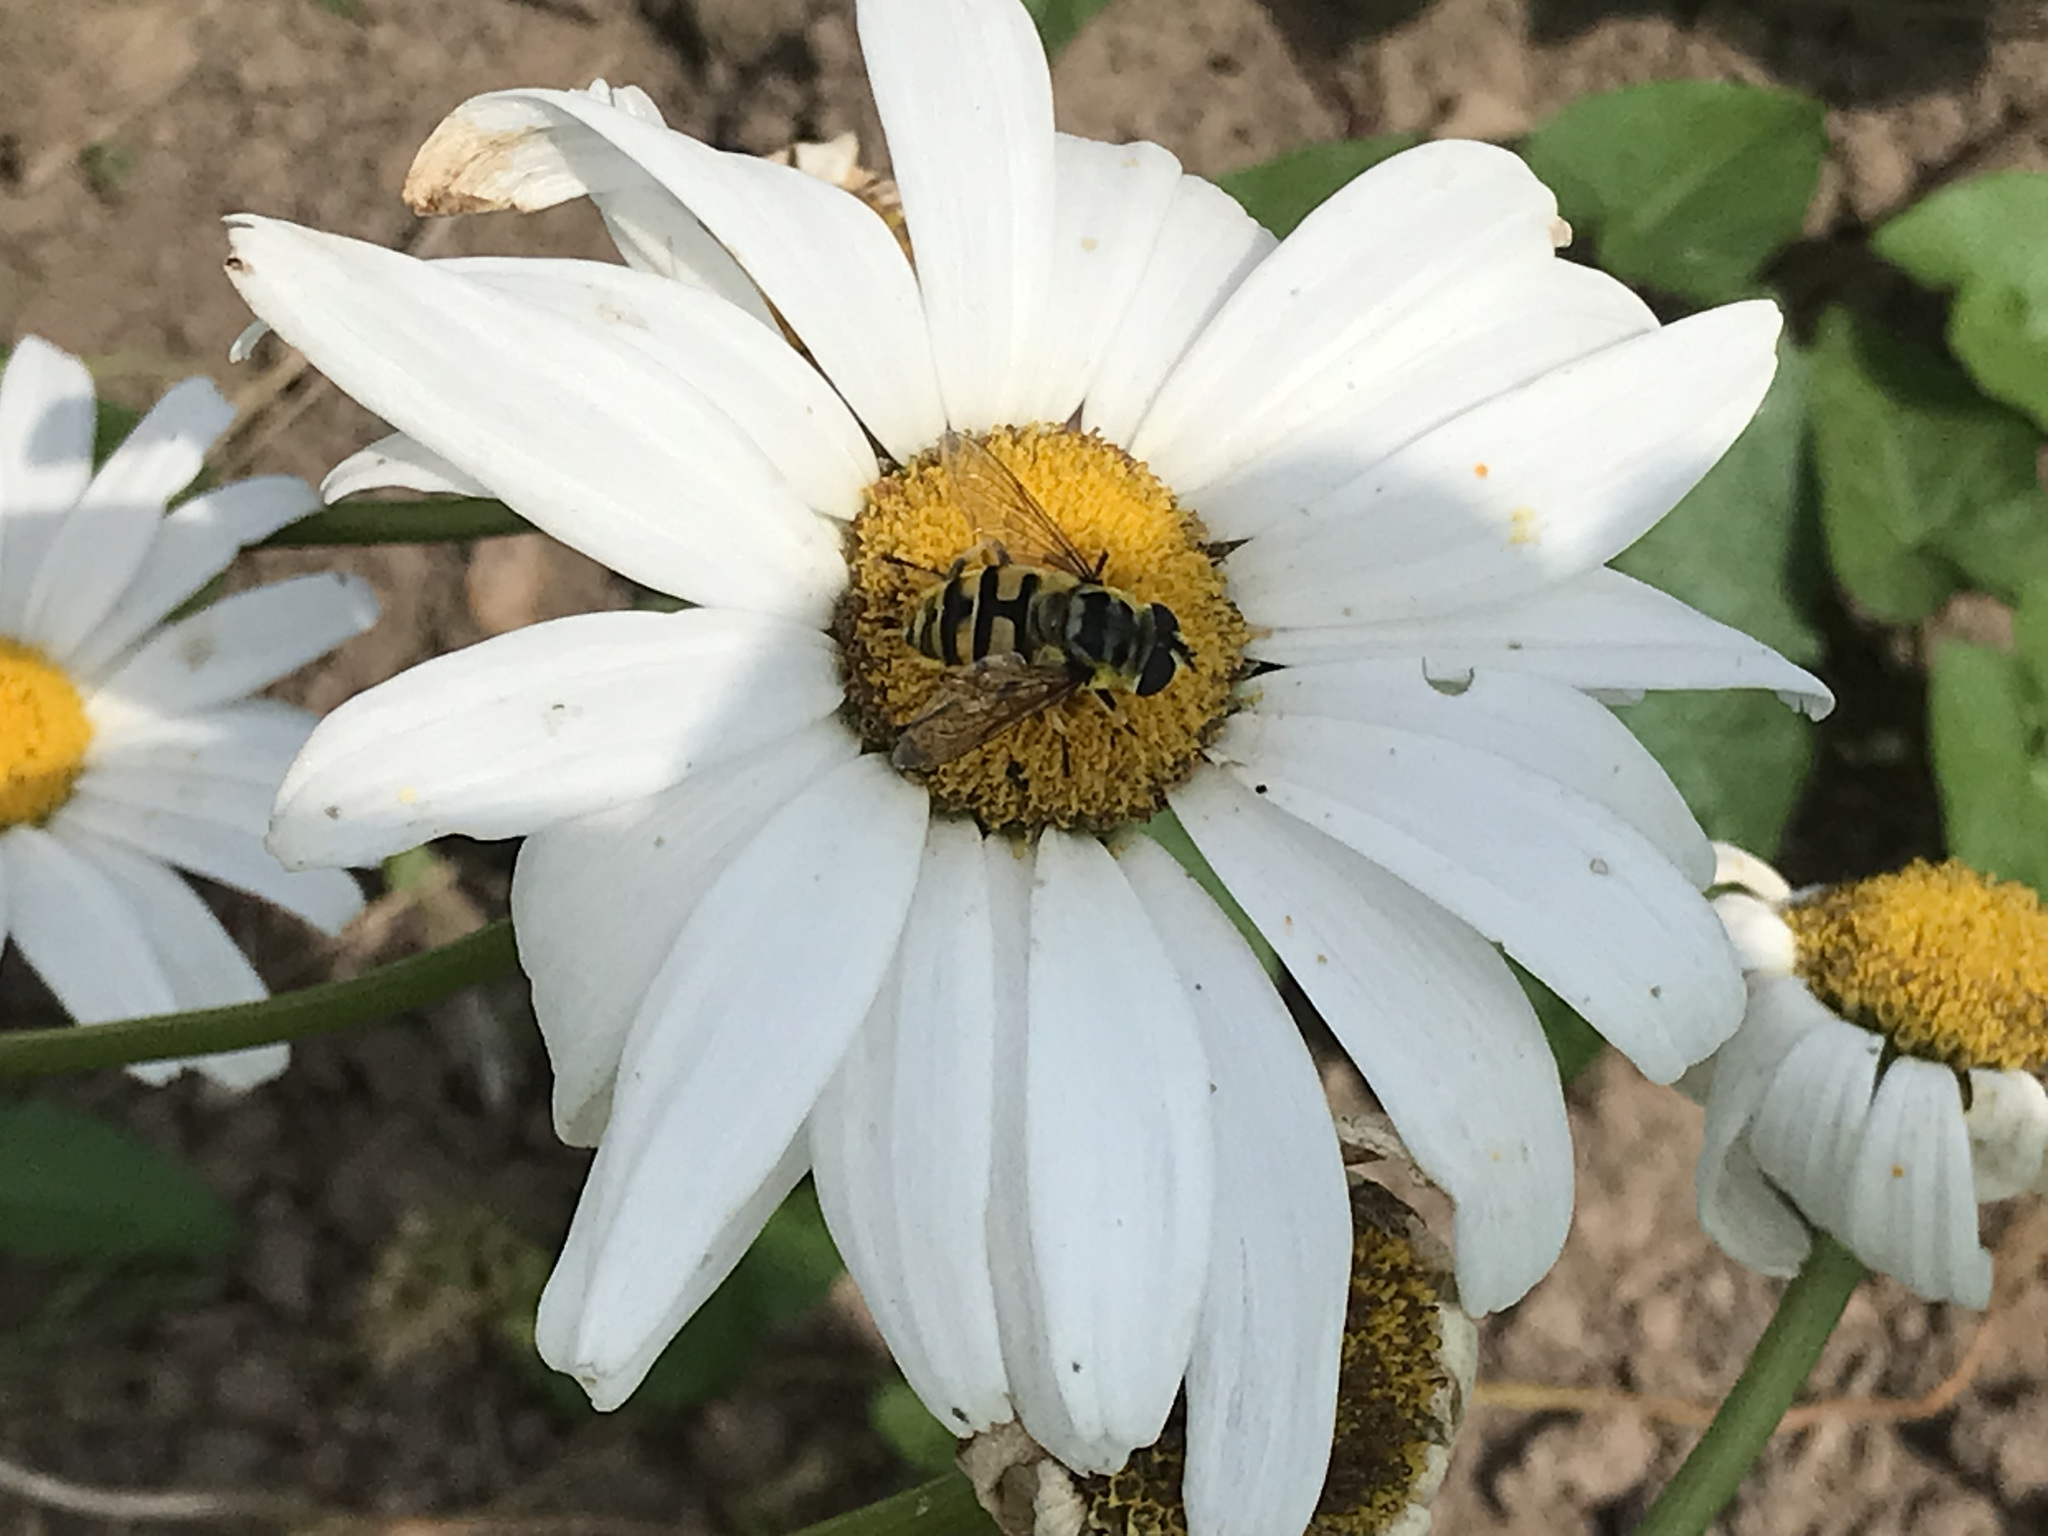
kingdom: Animalia
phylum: Arthropoda
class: Insecta
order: Diptera
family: Syrphidae
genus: Myathropa
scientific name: Myathropa florea
